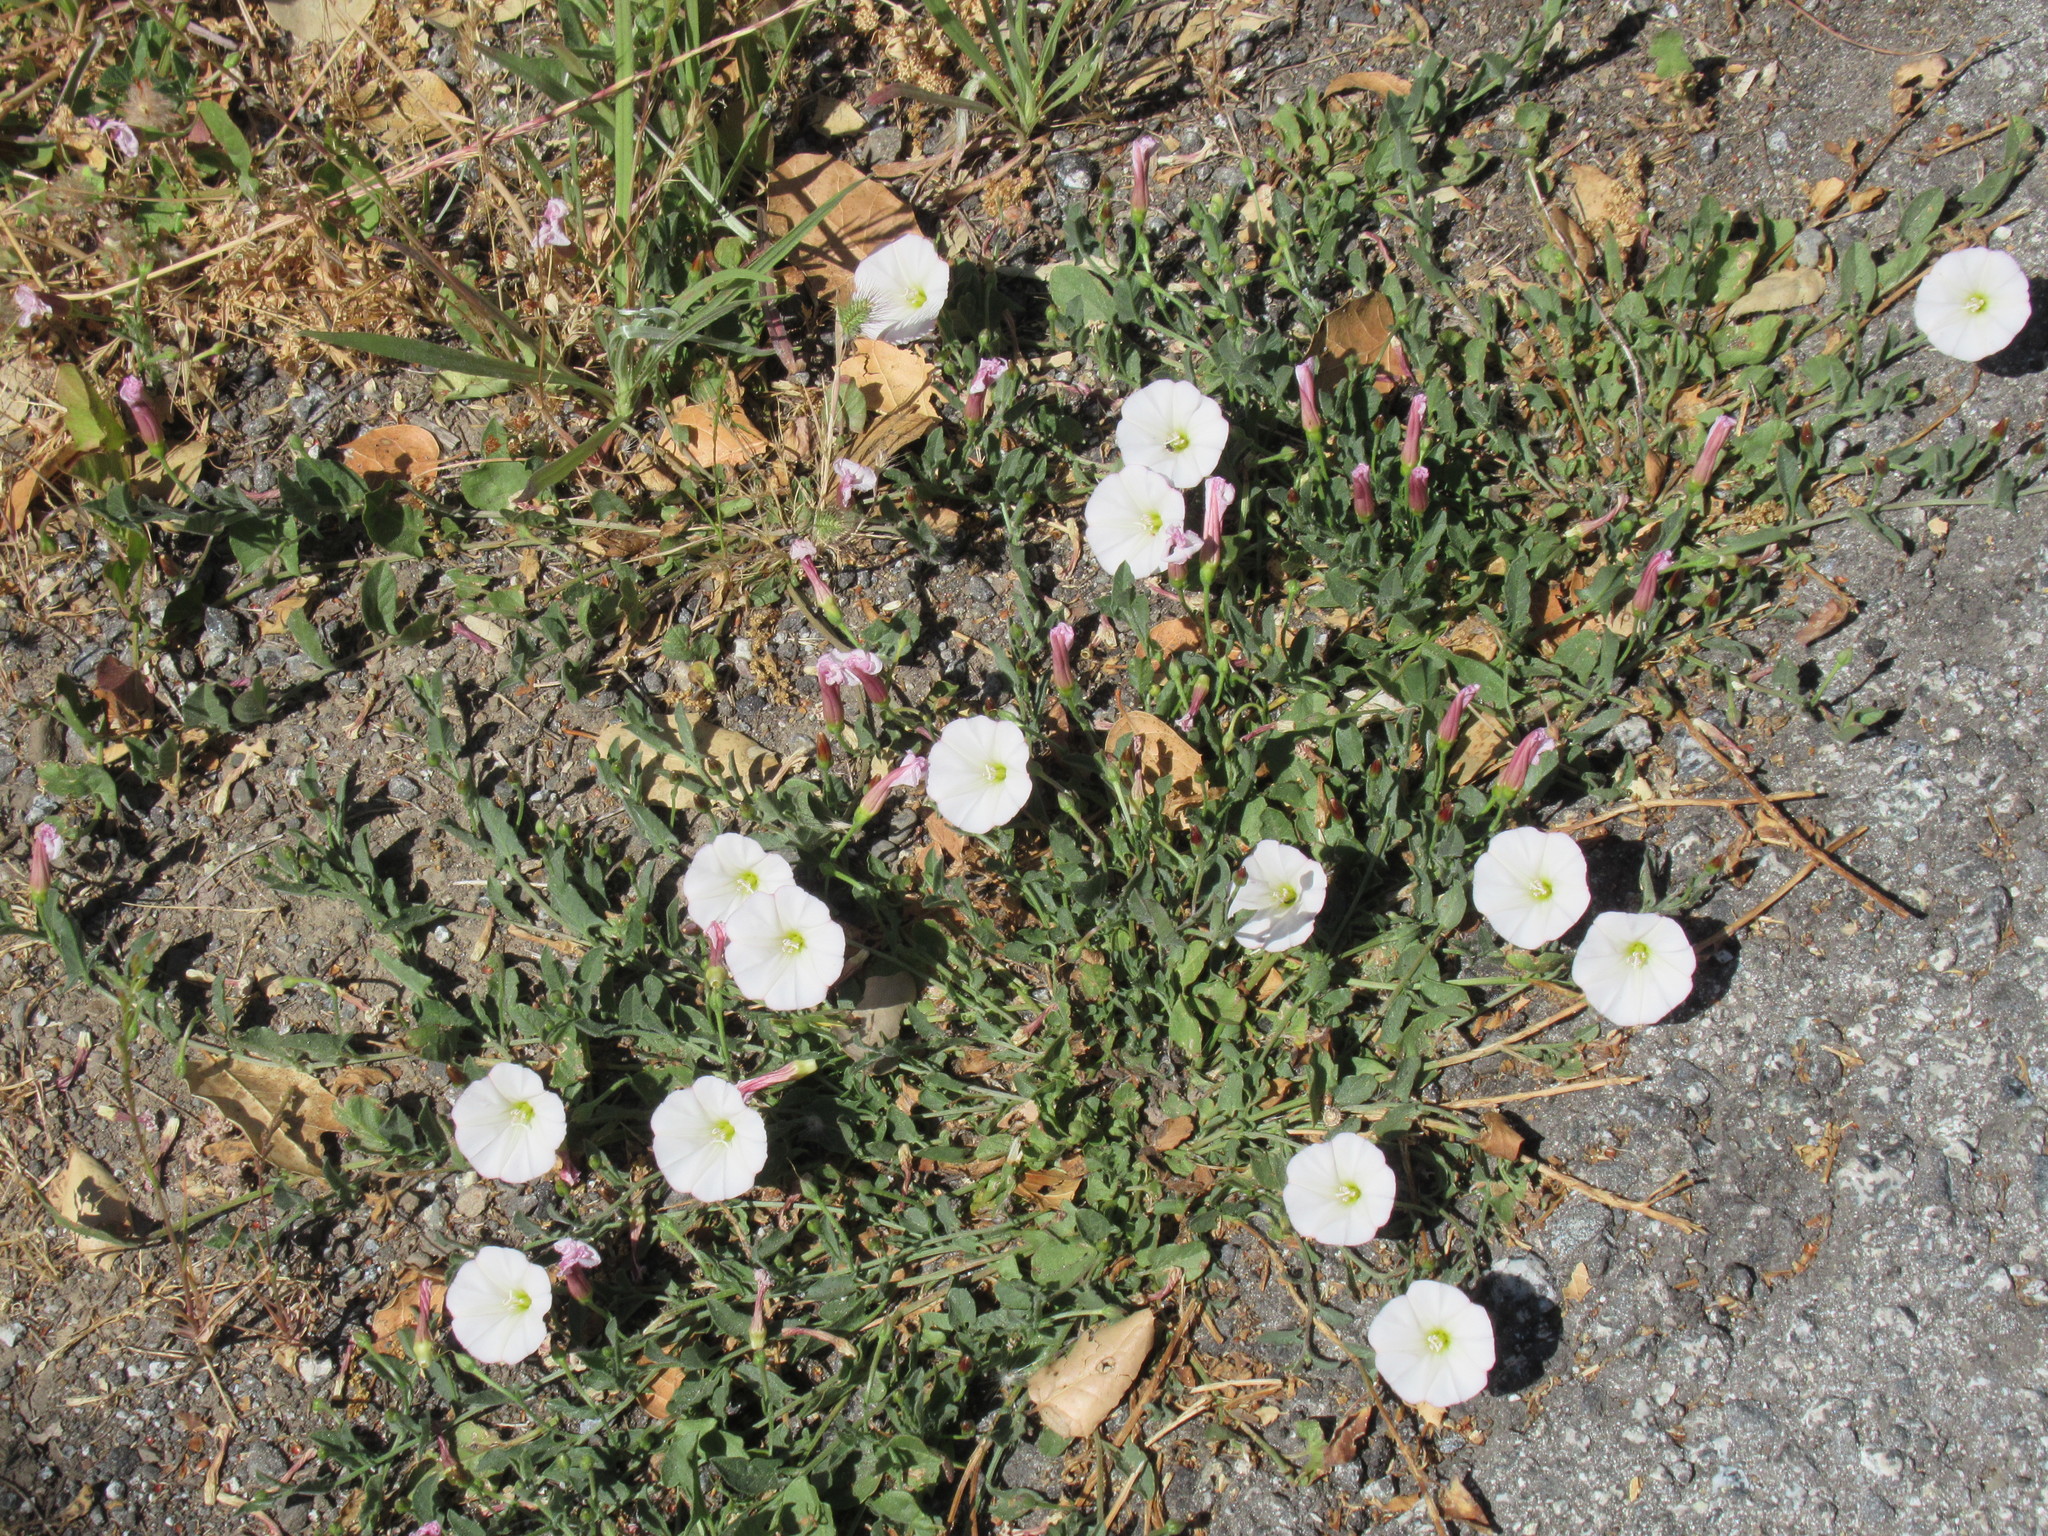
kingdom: Plantae
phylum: Tracheophyta
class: Magnoliopsida
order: Solanales
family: Convolvulaceae
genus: Convolvulus
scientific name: Convolvulus arvensis
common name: Field bindweed
